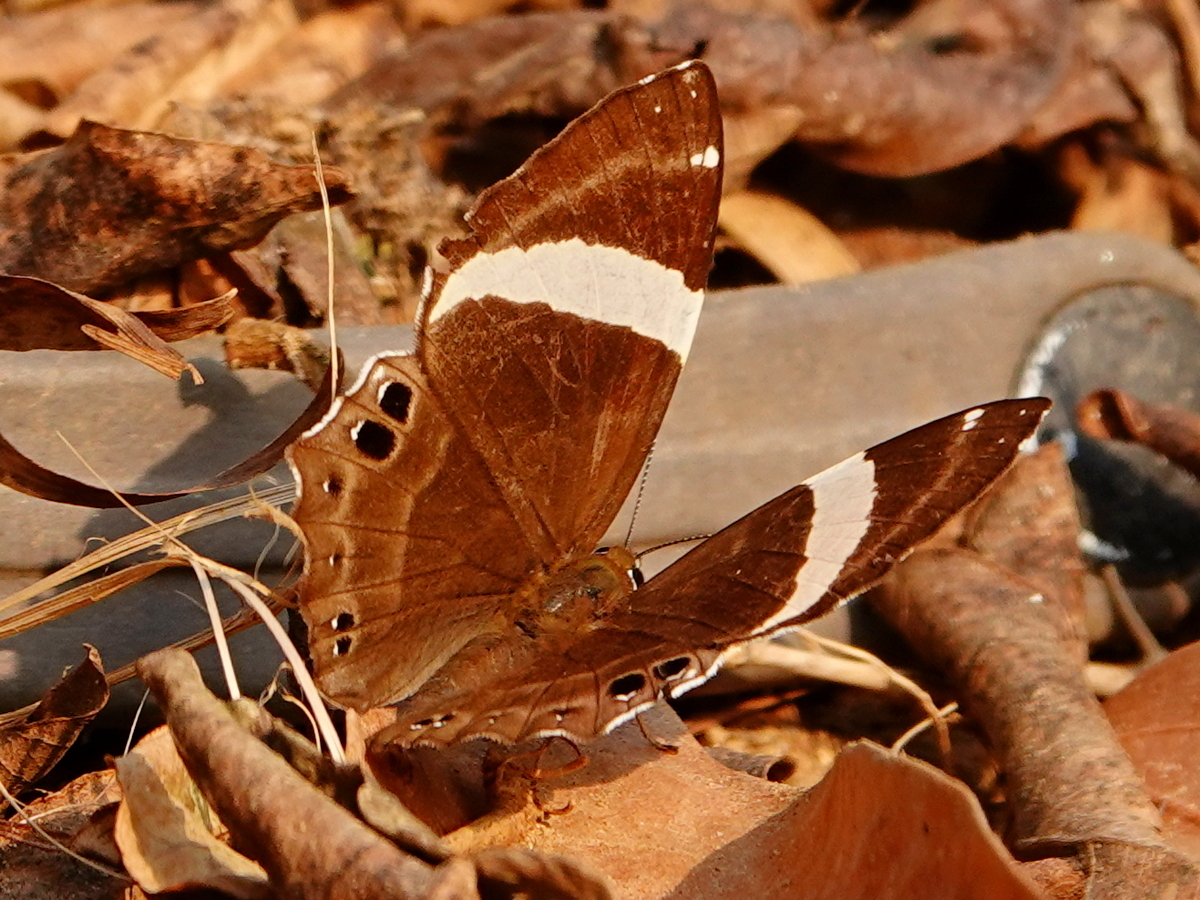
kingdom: Animalia
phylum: Arthropoda
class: Insecta
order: Lepidoptera
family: Lycaenidae
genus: Abisara
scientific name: Abisara fylla
